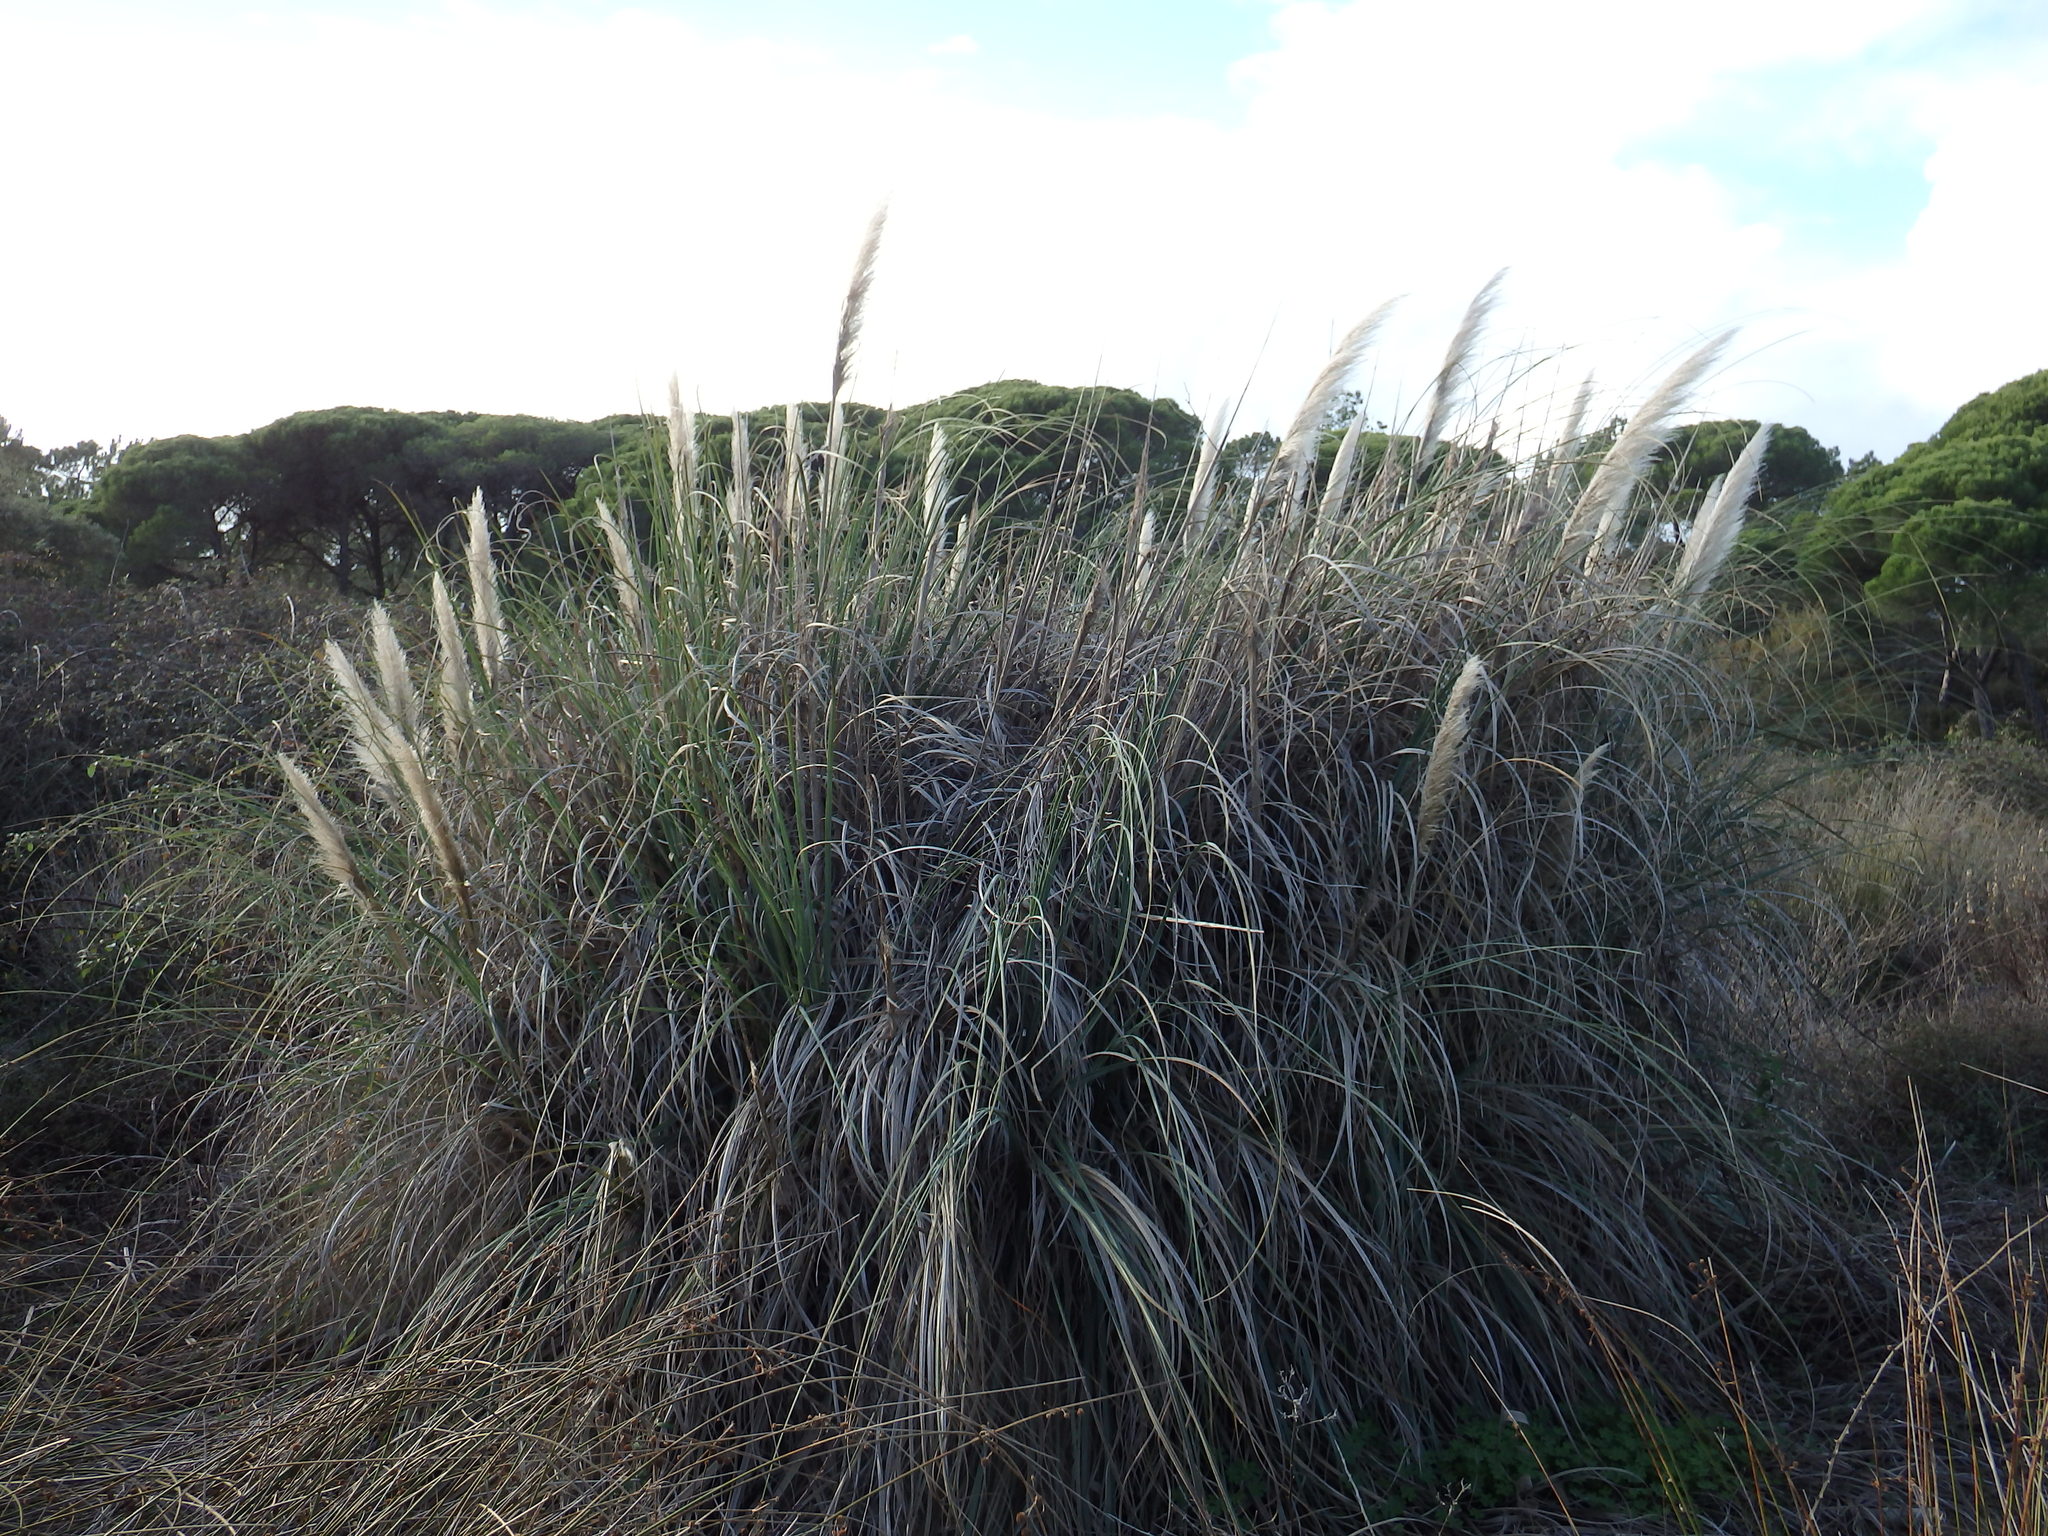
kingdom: Plantae
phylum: Tracheophyta
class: Liliopsida
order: Poales
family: Poaceae
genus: Cortaderia
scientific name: Cortaderia selloana
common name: Uruguayan pampas grass
